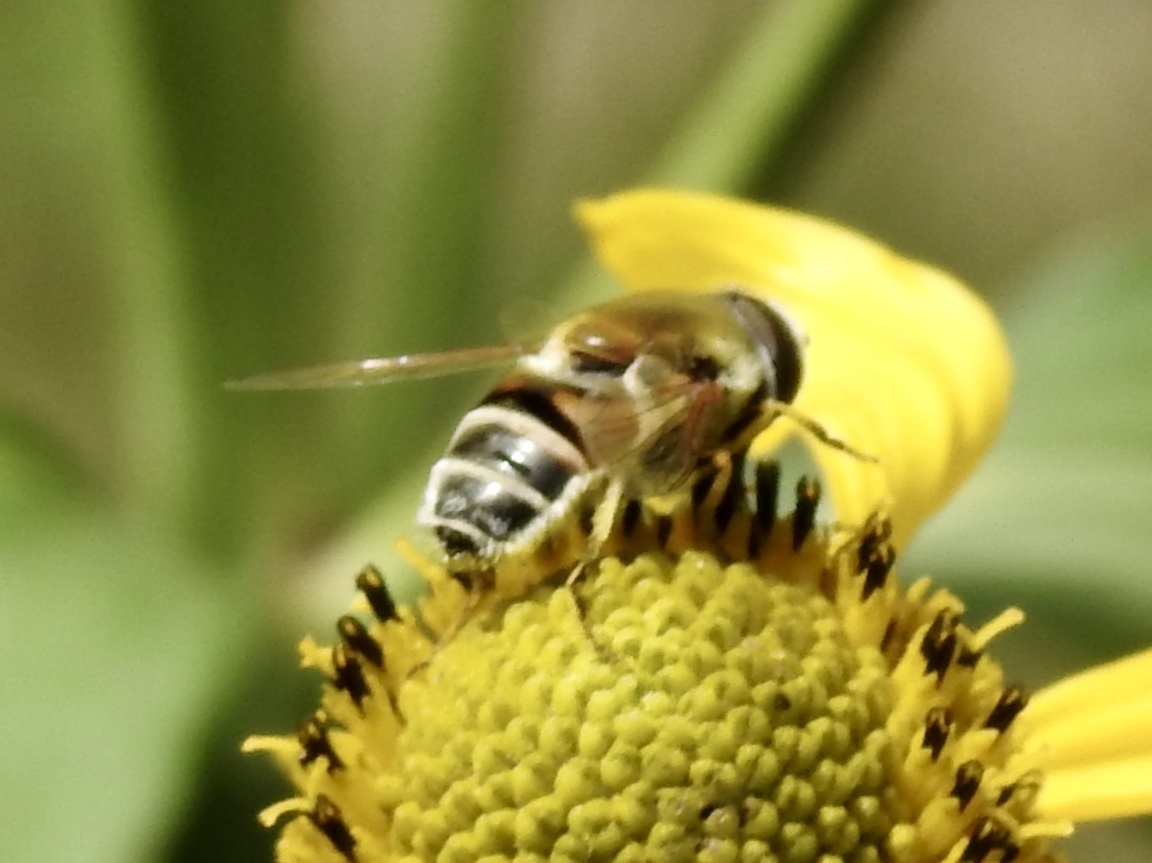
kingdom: Animalia
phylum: Arthropoda
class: Insecta
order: Diptera
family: Syrphidae
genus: Eristalis
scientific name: Eristalis stipator
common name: Yellow-shouldered drone fly
